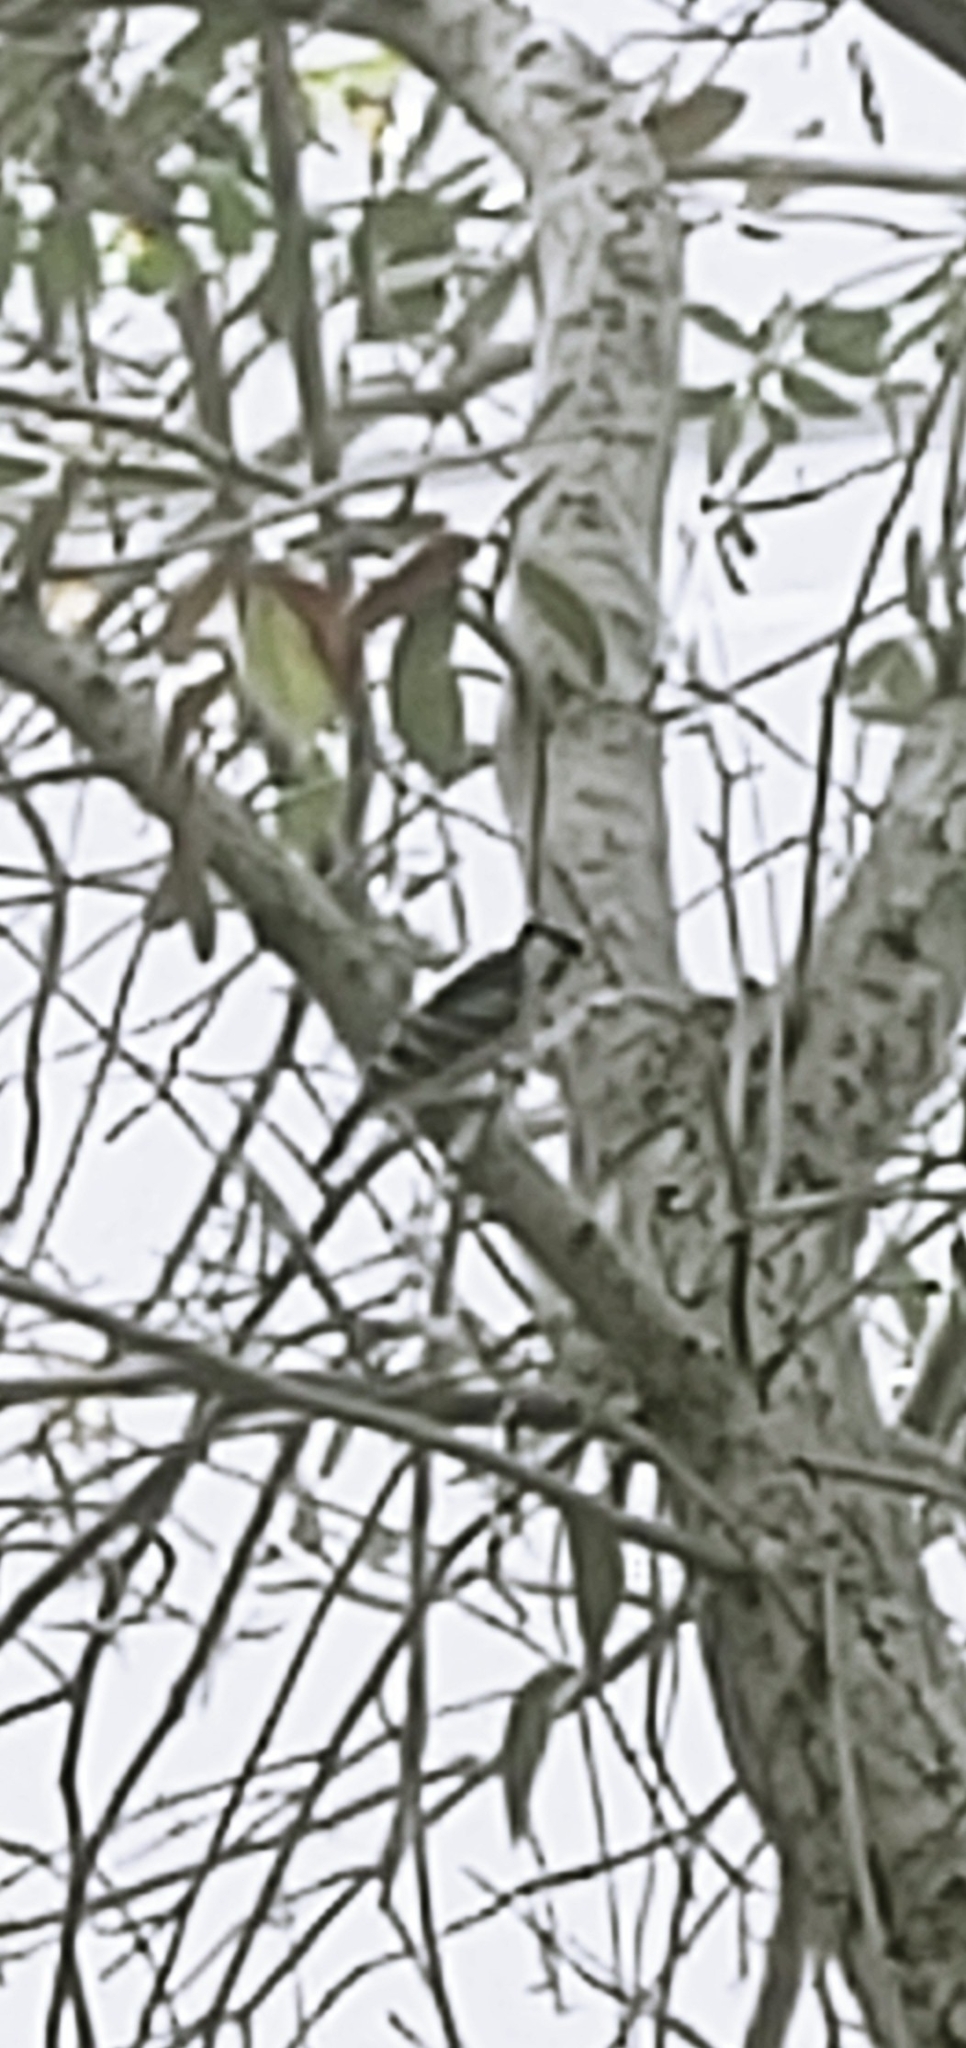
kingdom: Animalia
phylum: Chordata
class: Aves
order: Piciformes
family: Picidae
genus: Dryobates
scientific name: Dryobates pubescens
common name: Downy woodpecker
